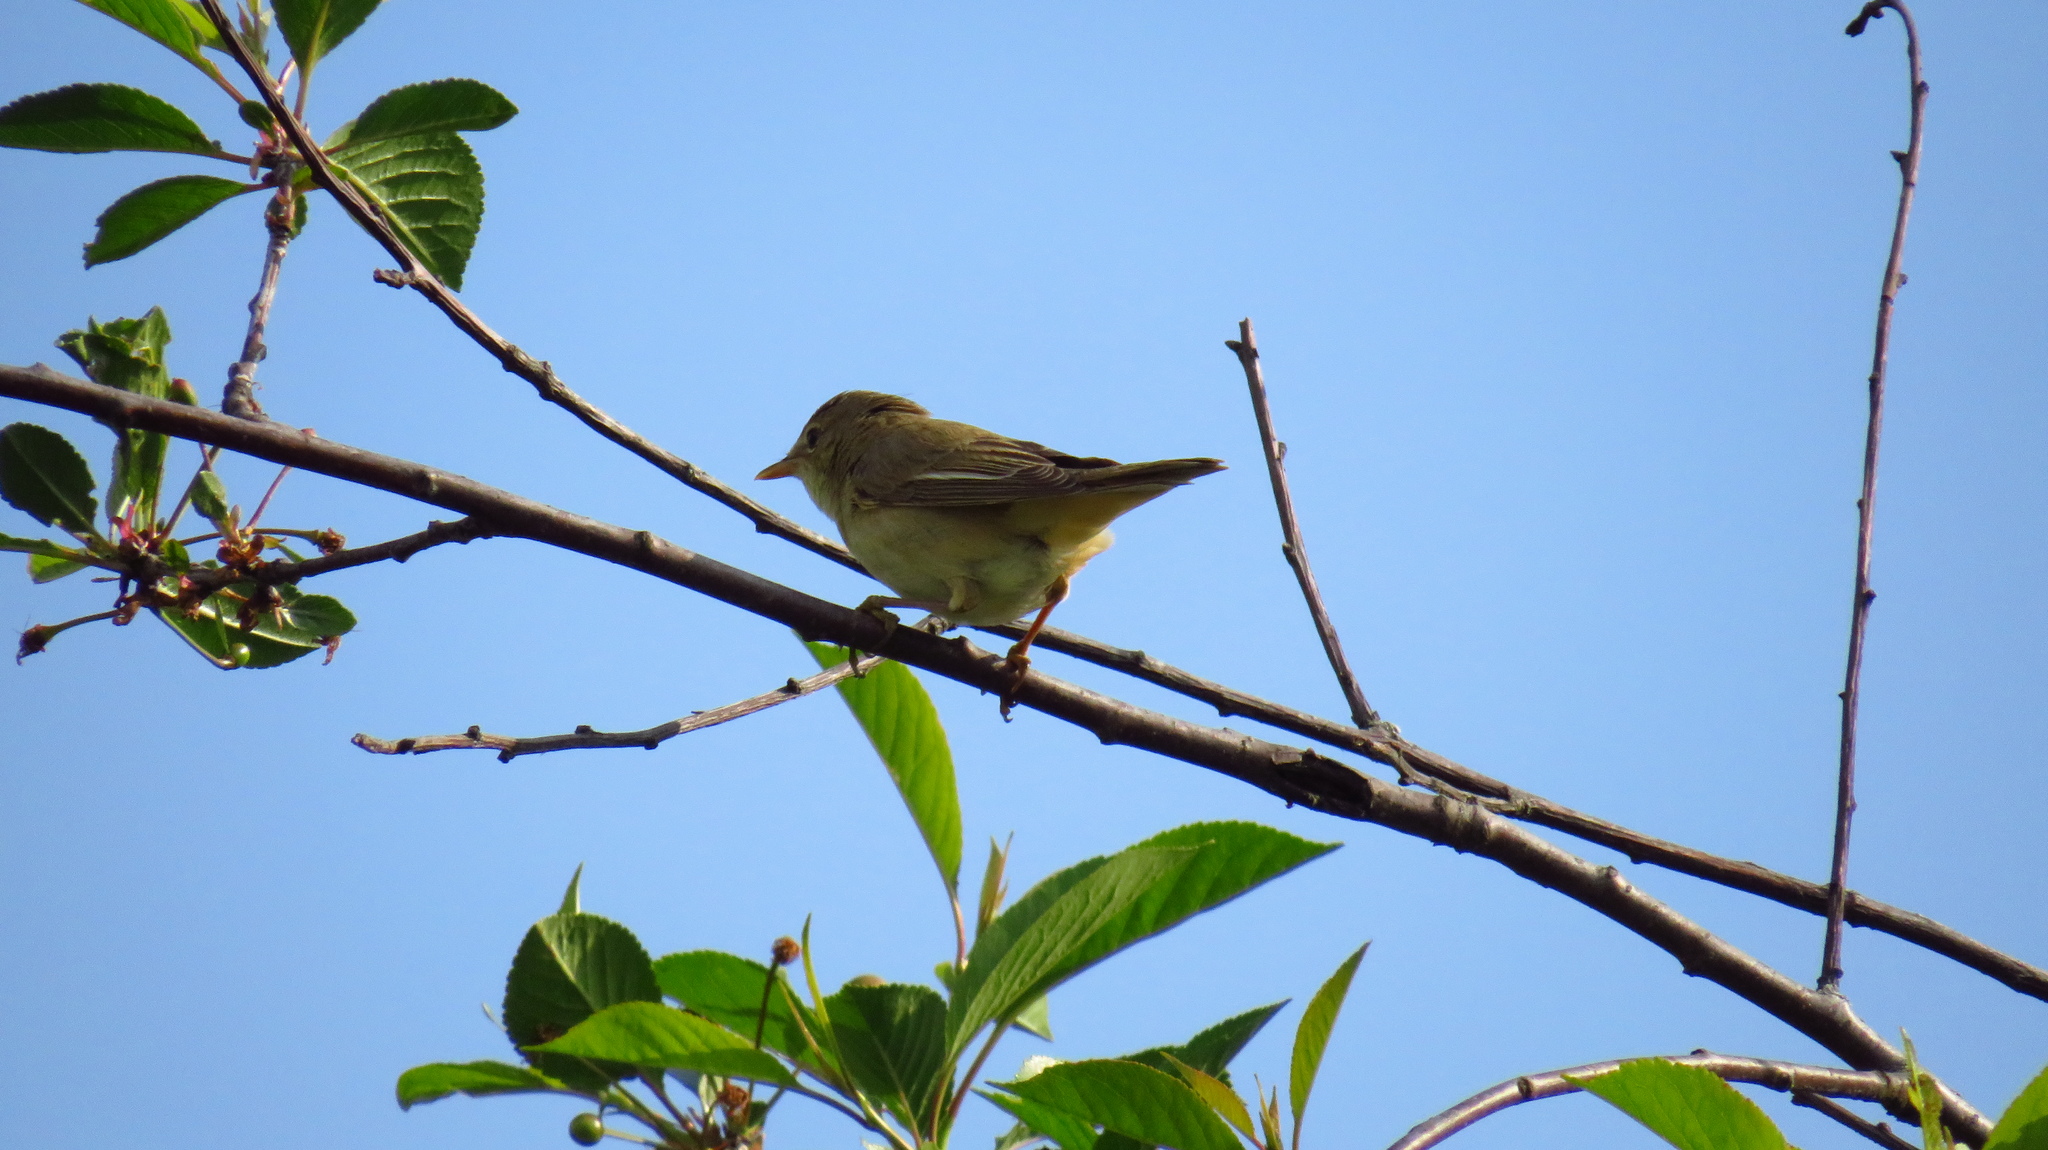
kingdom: Animalia
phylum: Chordata
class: Aves
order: Passeriformes
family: Acrocephalidae
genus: Acrocephalus
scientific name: Acrocephalus dumetorum
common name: Blyth's reed warbler
